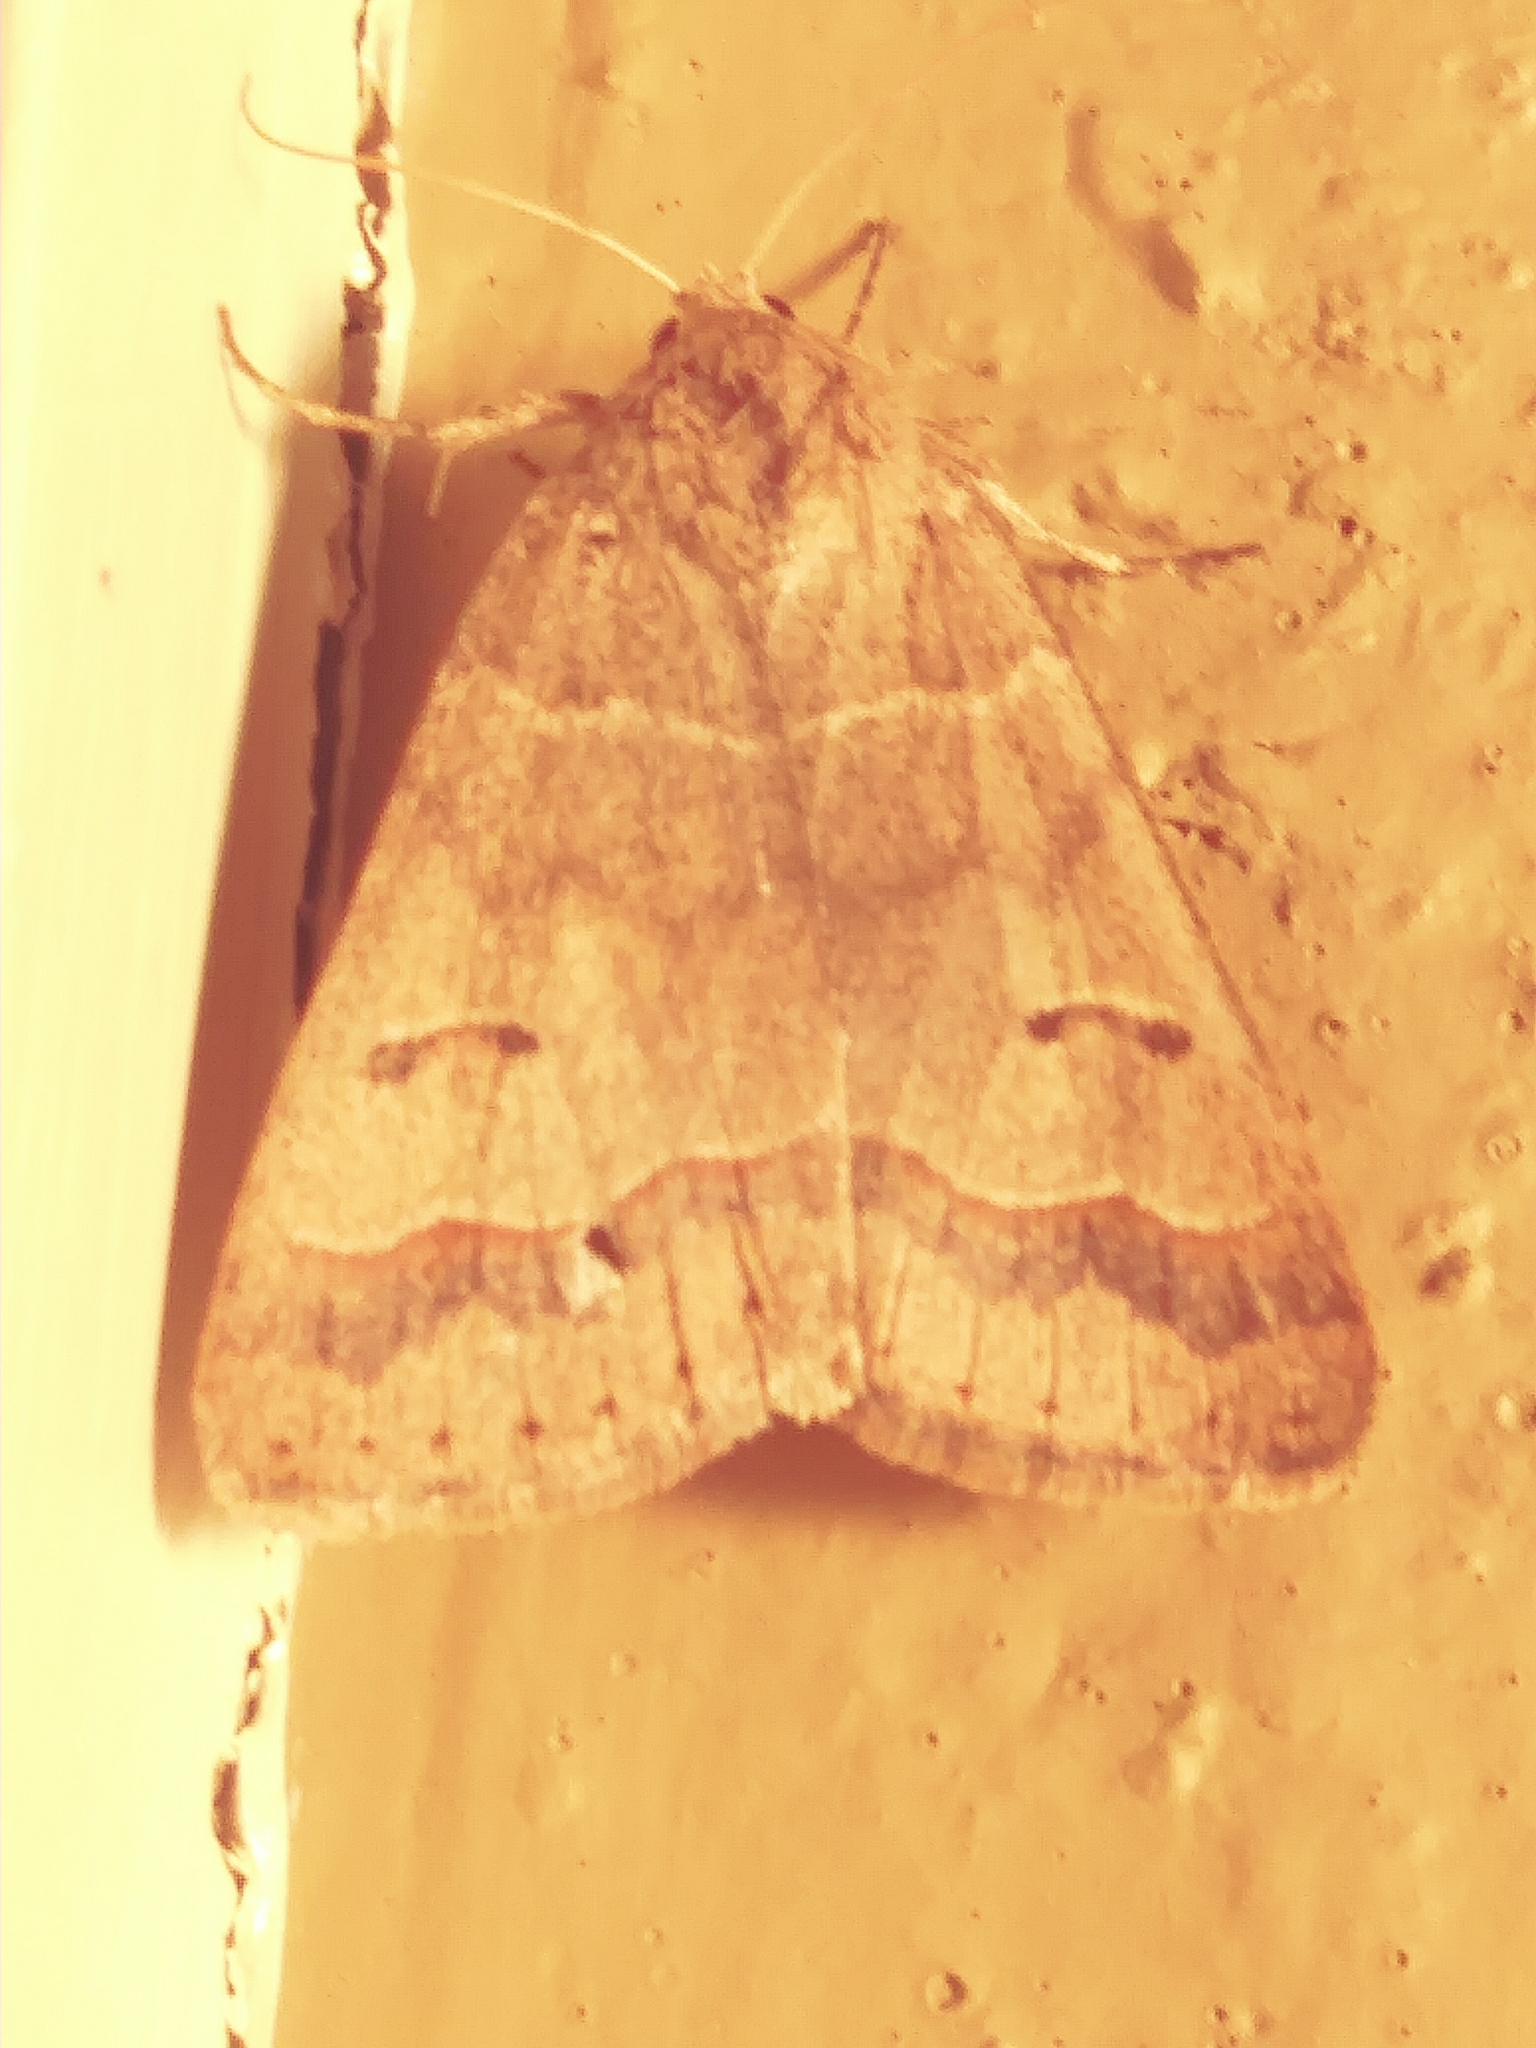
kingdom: Animalia
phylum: Arthropoda
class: Insecta
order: Lepidoptera
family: Erebidae
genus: Phoberia
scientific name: Phoberia atomaris
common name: Common oak moth
